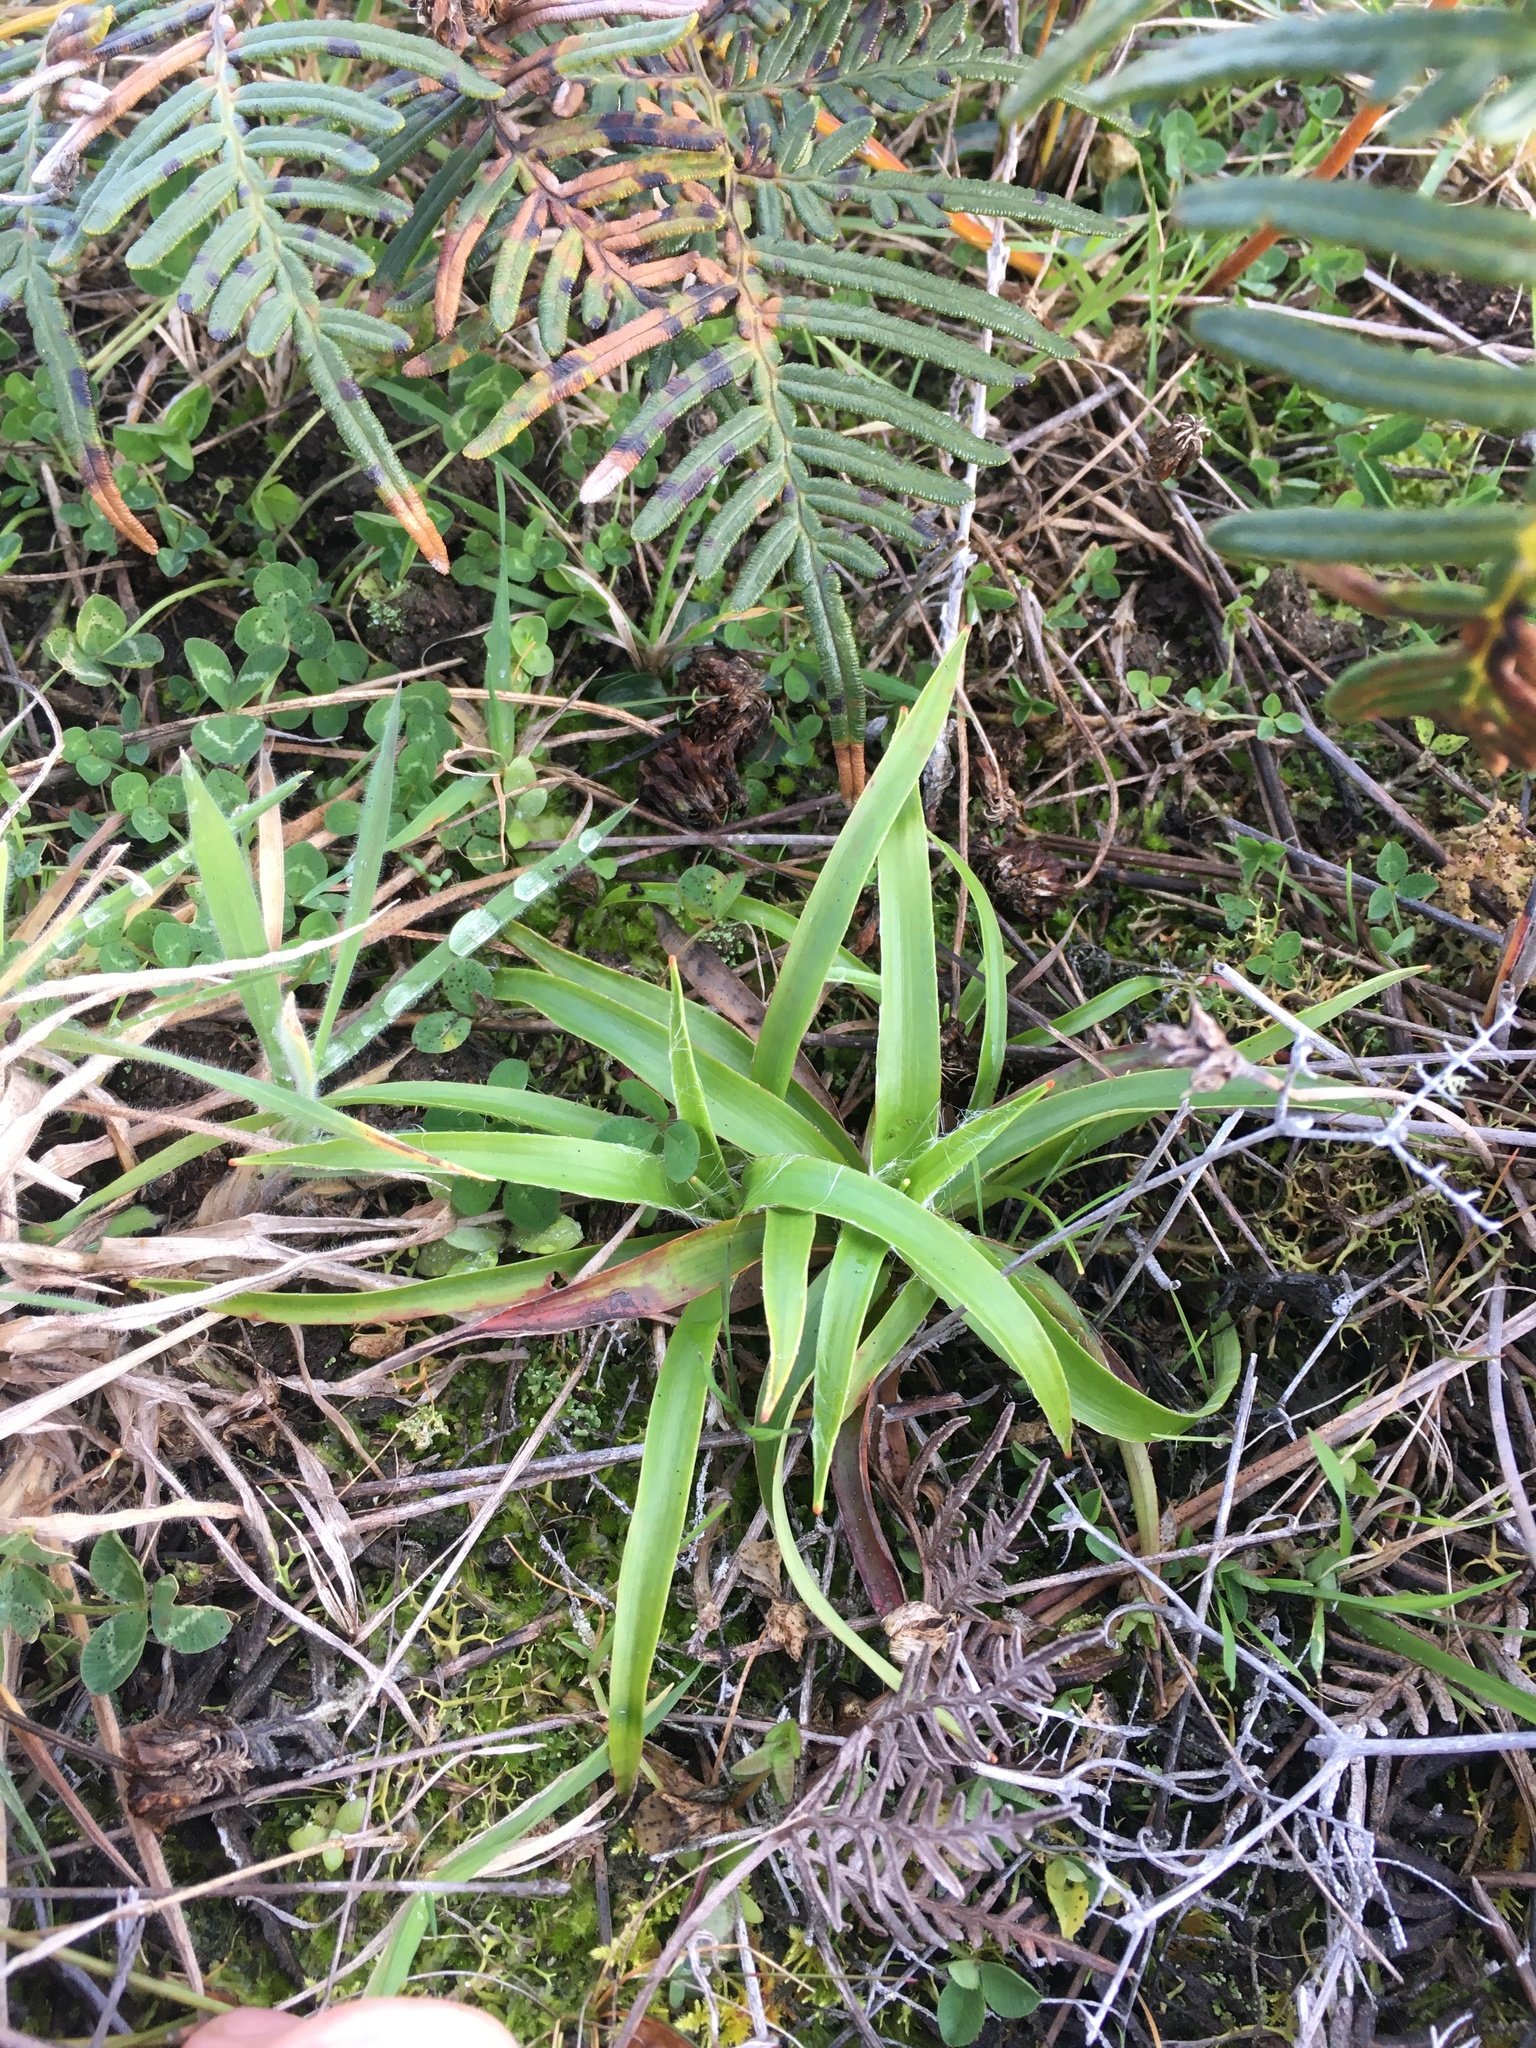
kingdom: Plantae
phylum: Tracheophyta
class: Liliopsida
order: Poales
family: Juncaceae
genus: Luzula
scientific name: Luzula banksiana
